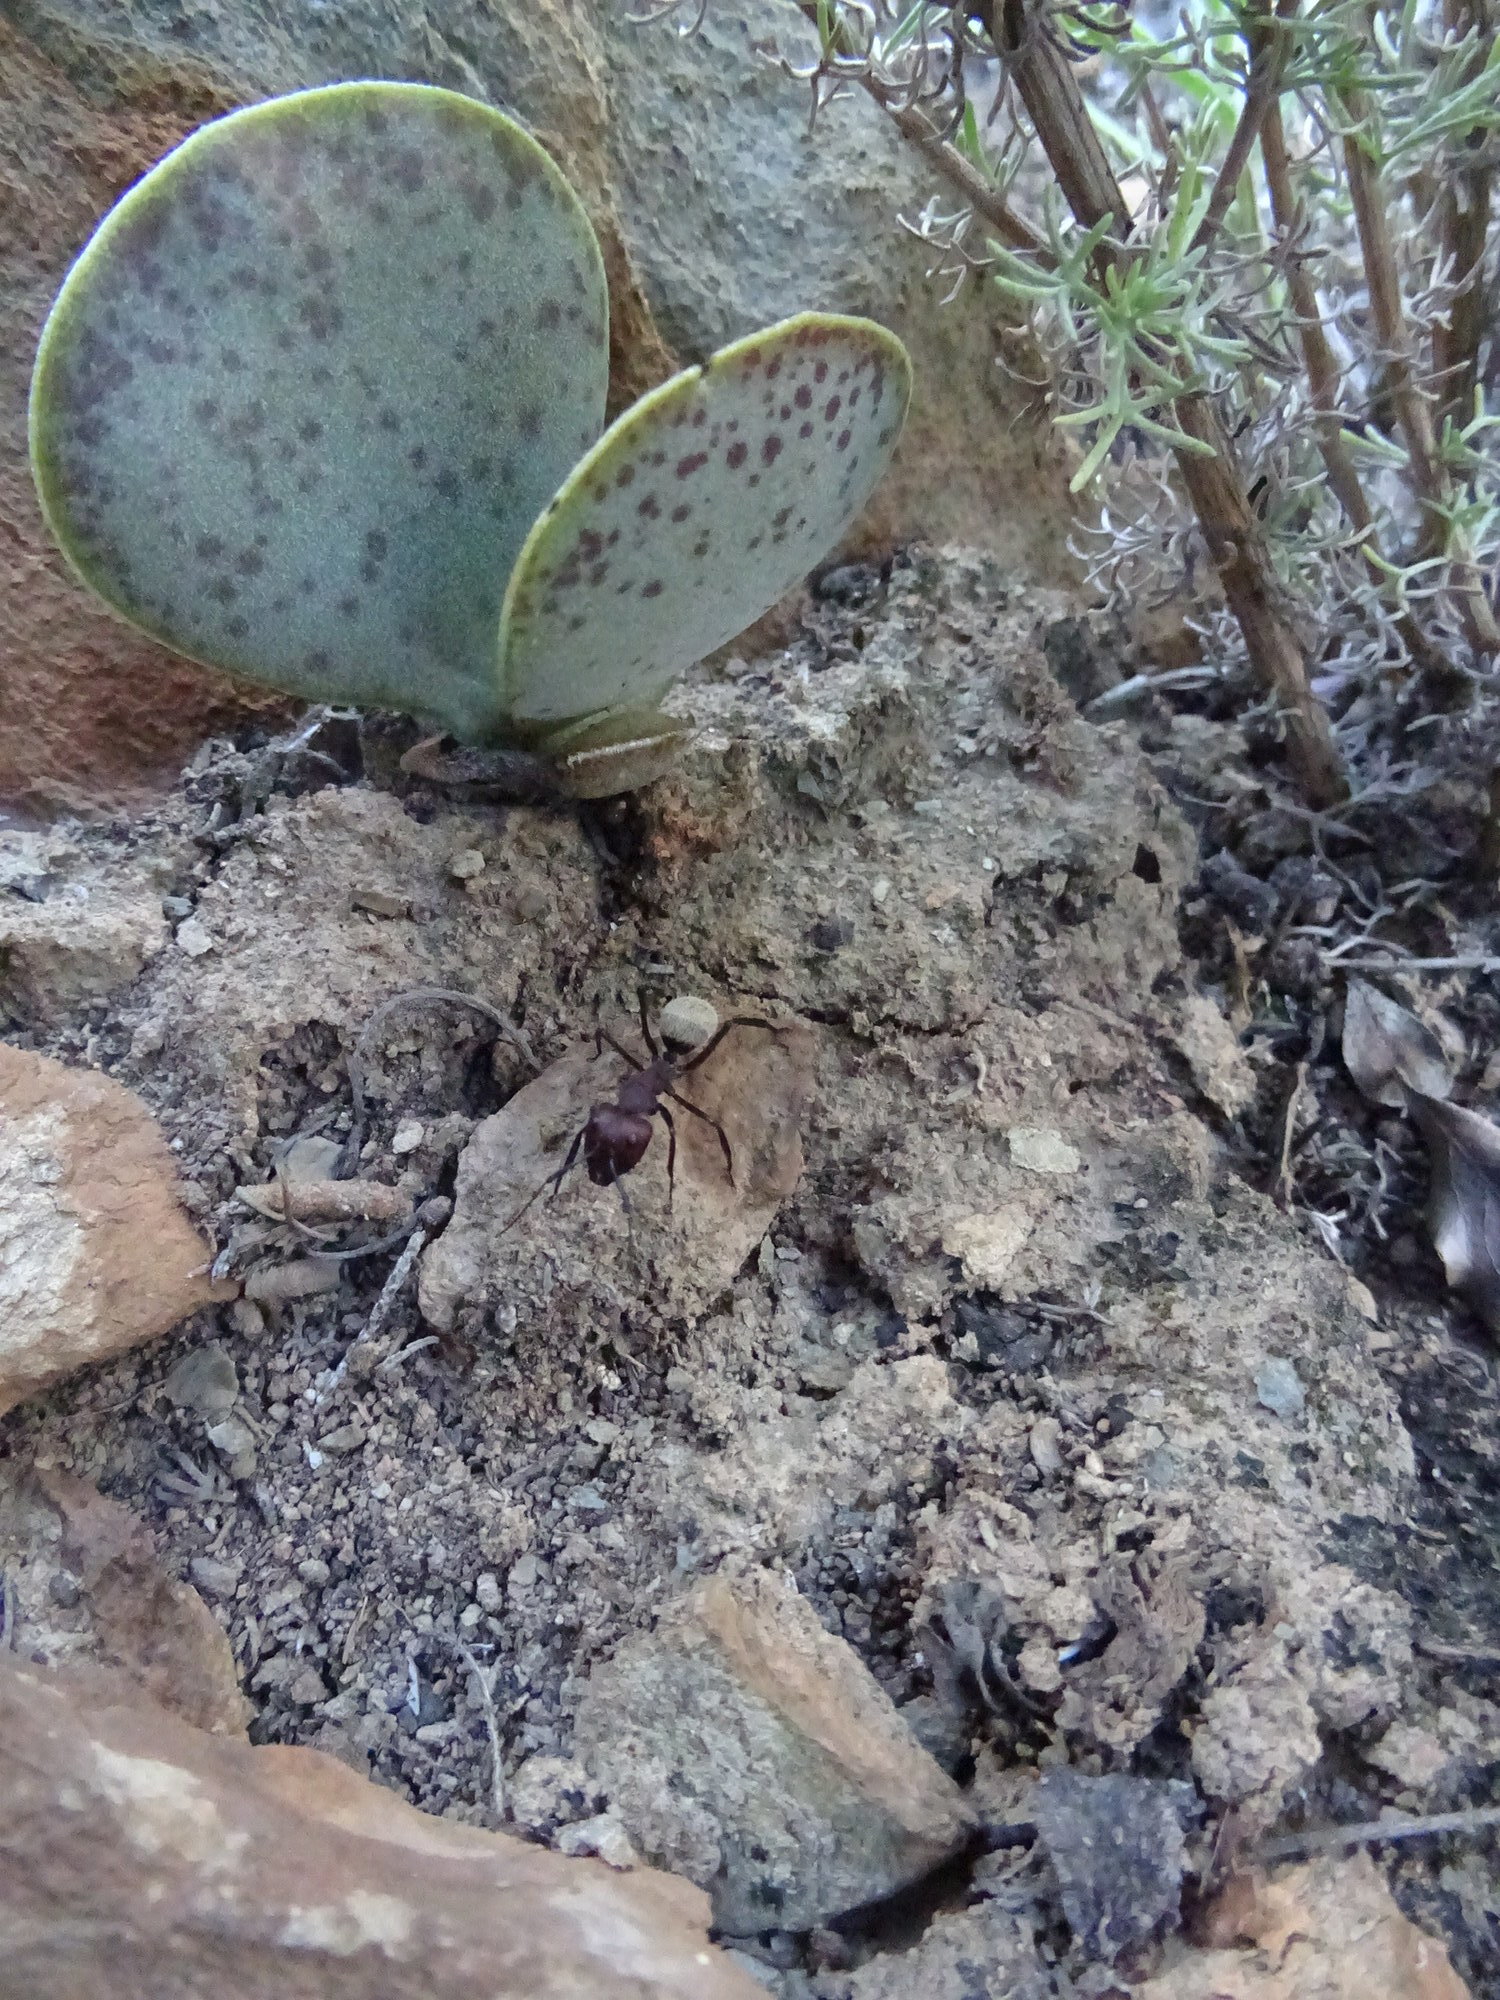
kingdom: Animalia
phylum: Arthropoda
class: Insecta
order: Hymenoptera
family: Formicidae
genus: Camponotus
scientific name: Camponotus storeatus
